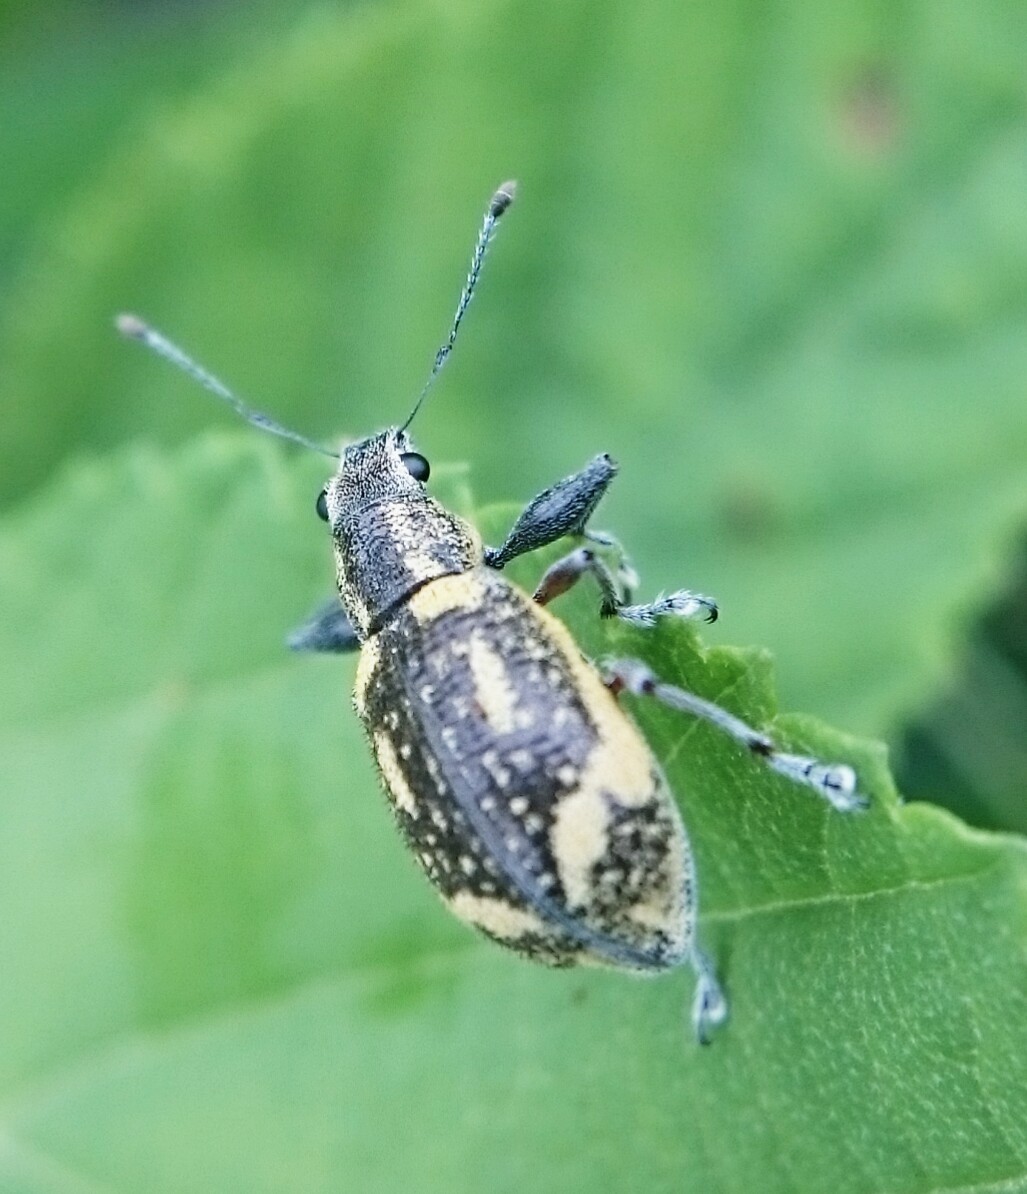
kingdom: Animalia
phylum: Arthropoda
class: Insecta
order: Coleoptera
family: Curculionidae
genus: Galapaganus
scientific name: Galapaganus howdenae
